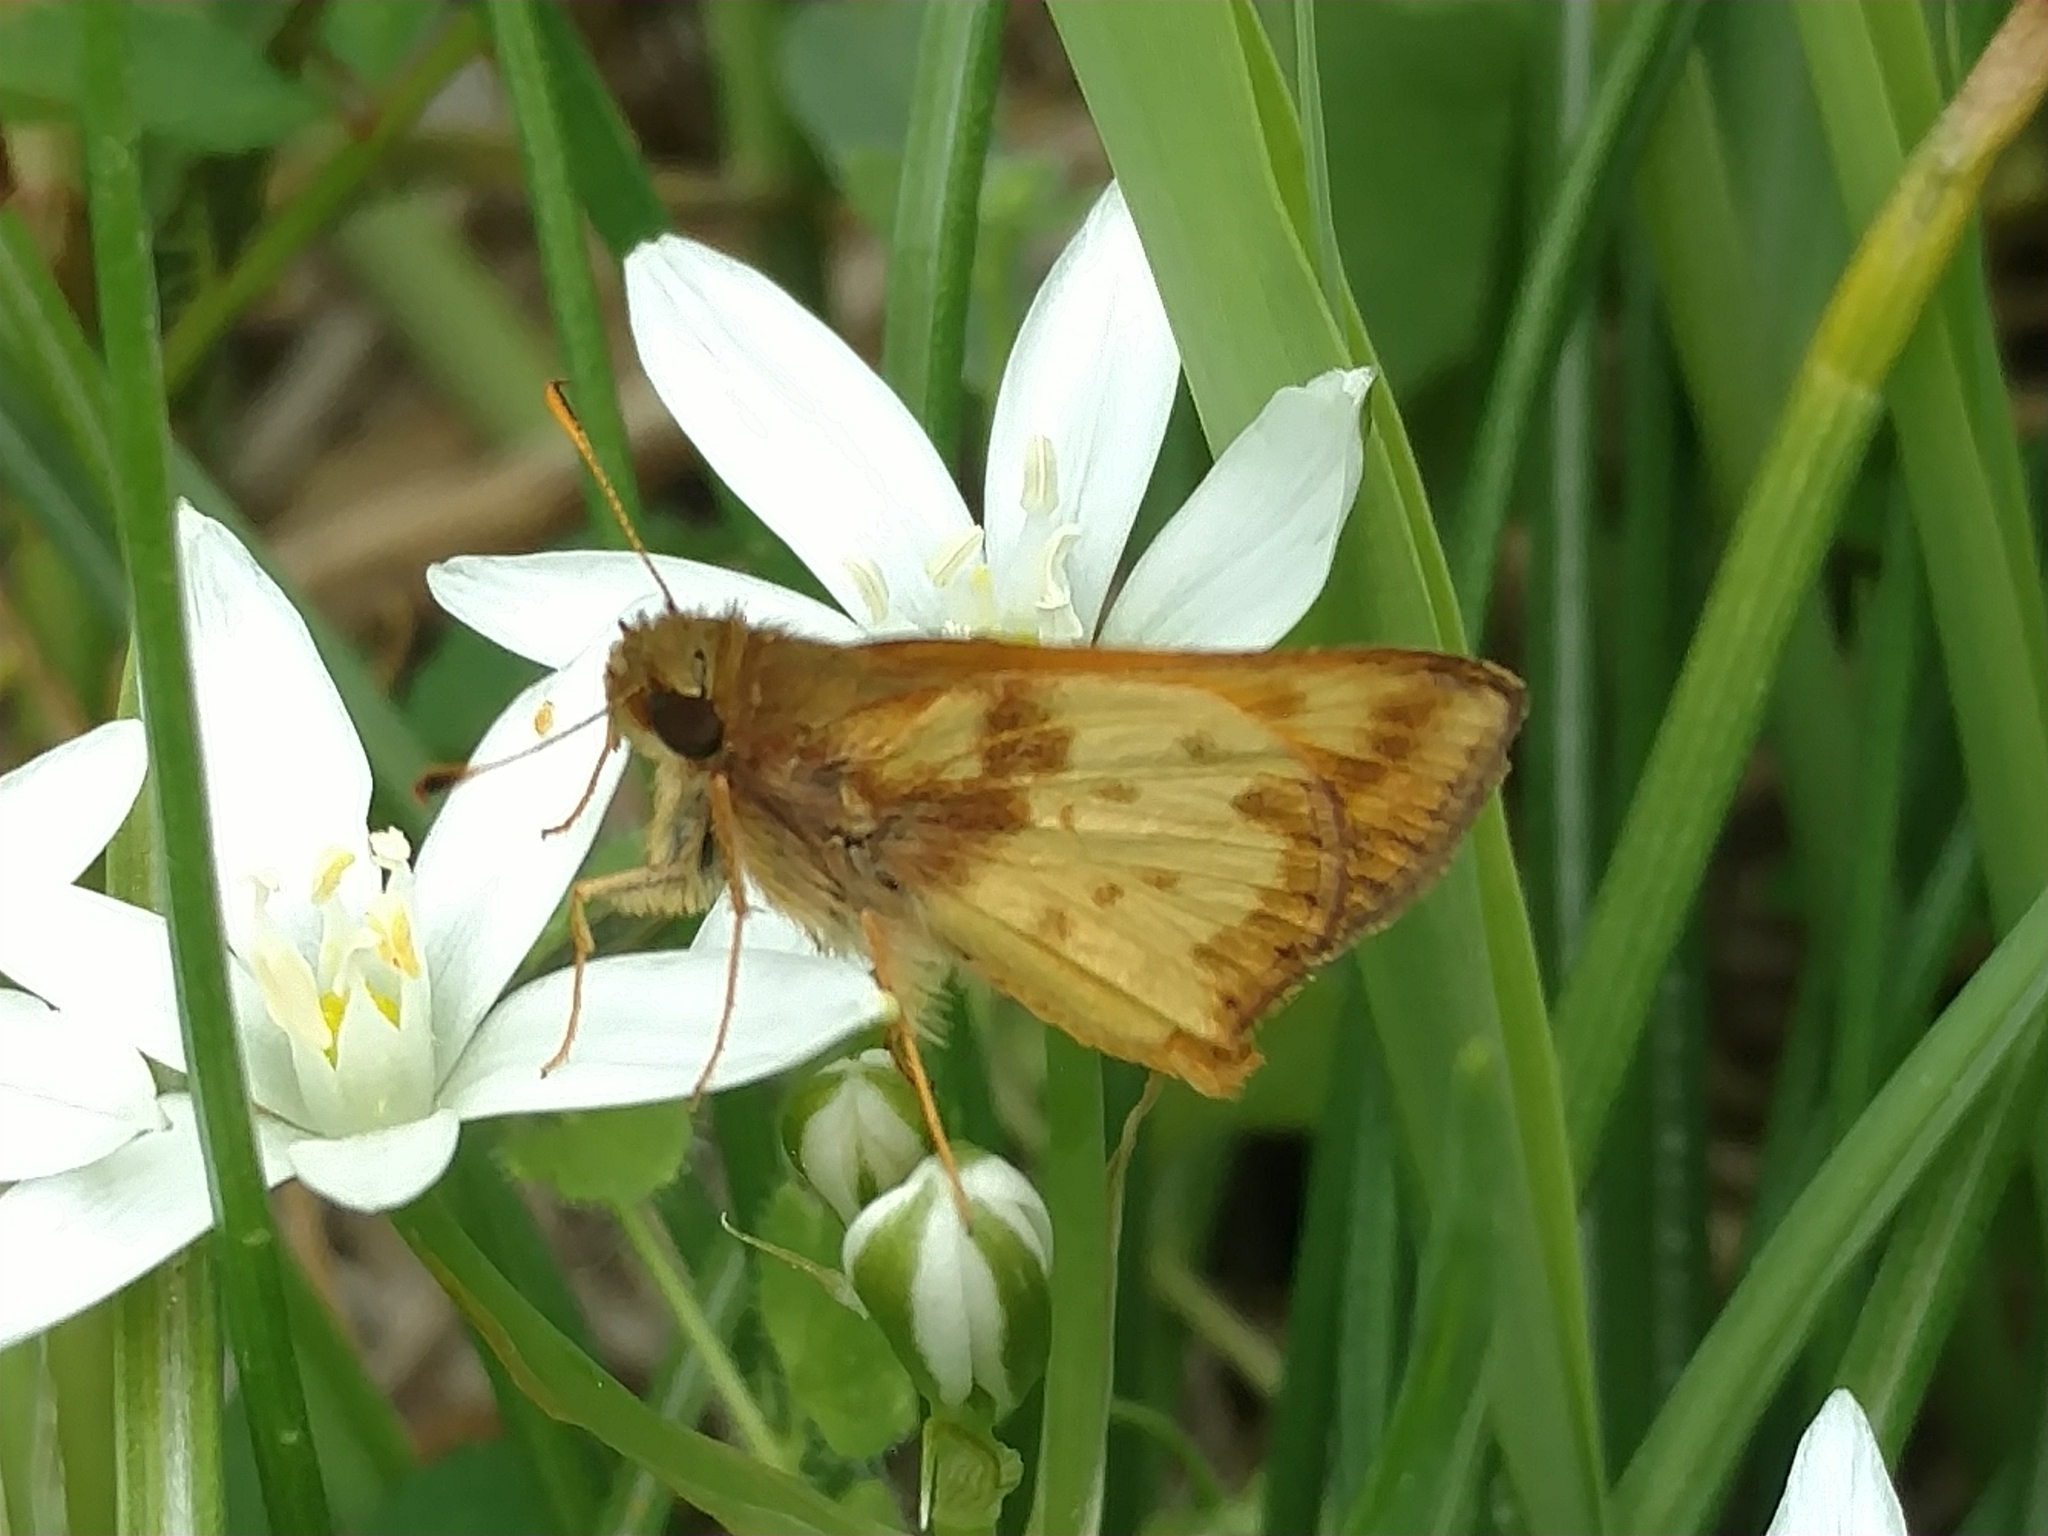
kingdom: Animalia
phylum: Arthropoda
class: Insecta
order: Lepidoptera
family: Hesperiidae
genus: Lon
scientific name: Lon zabulon
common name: Zabulon skipper
